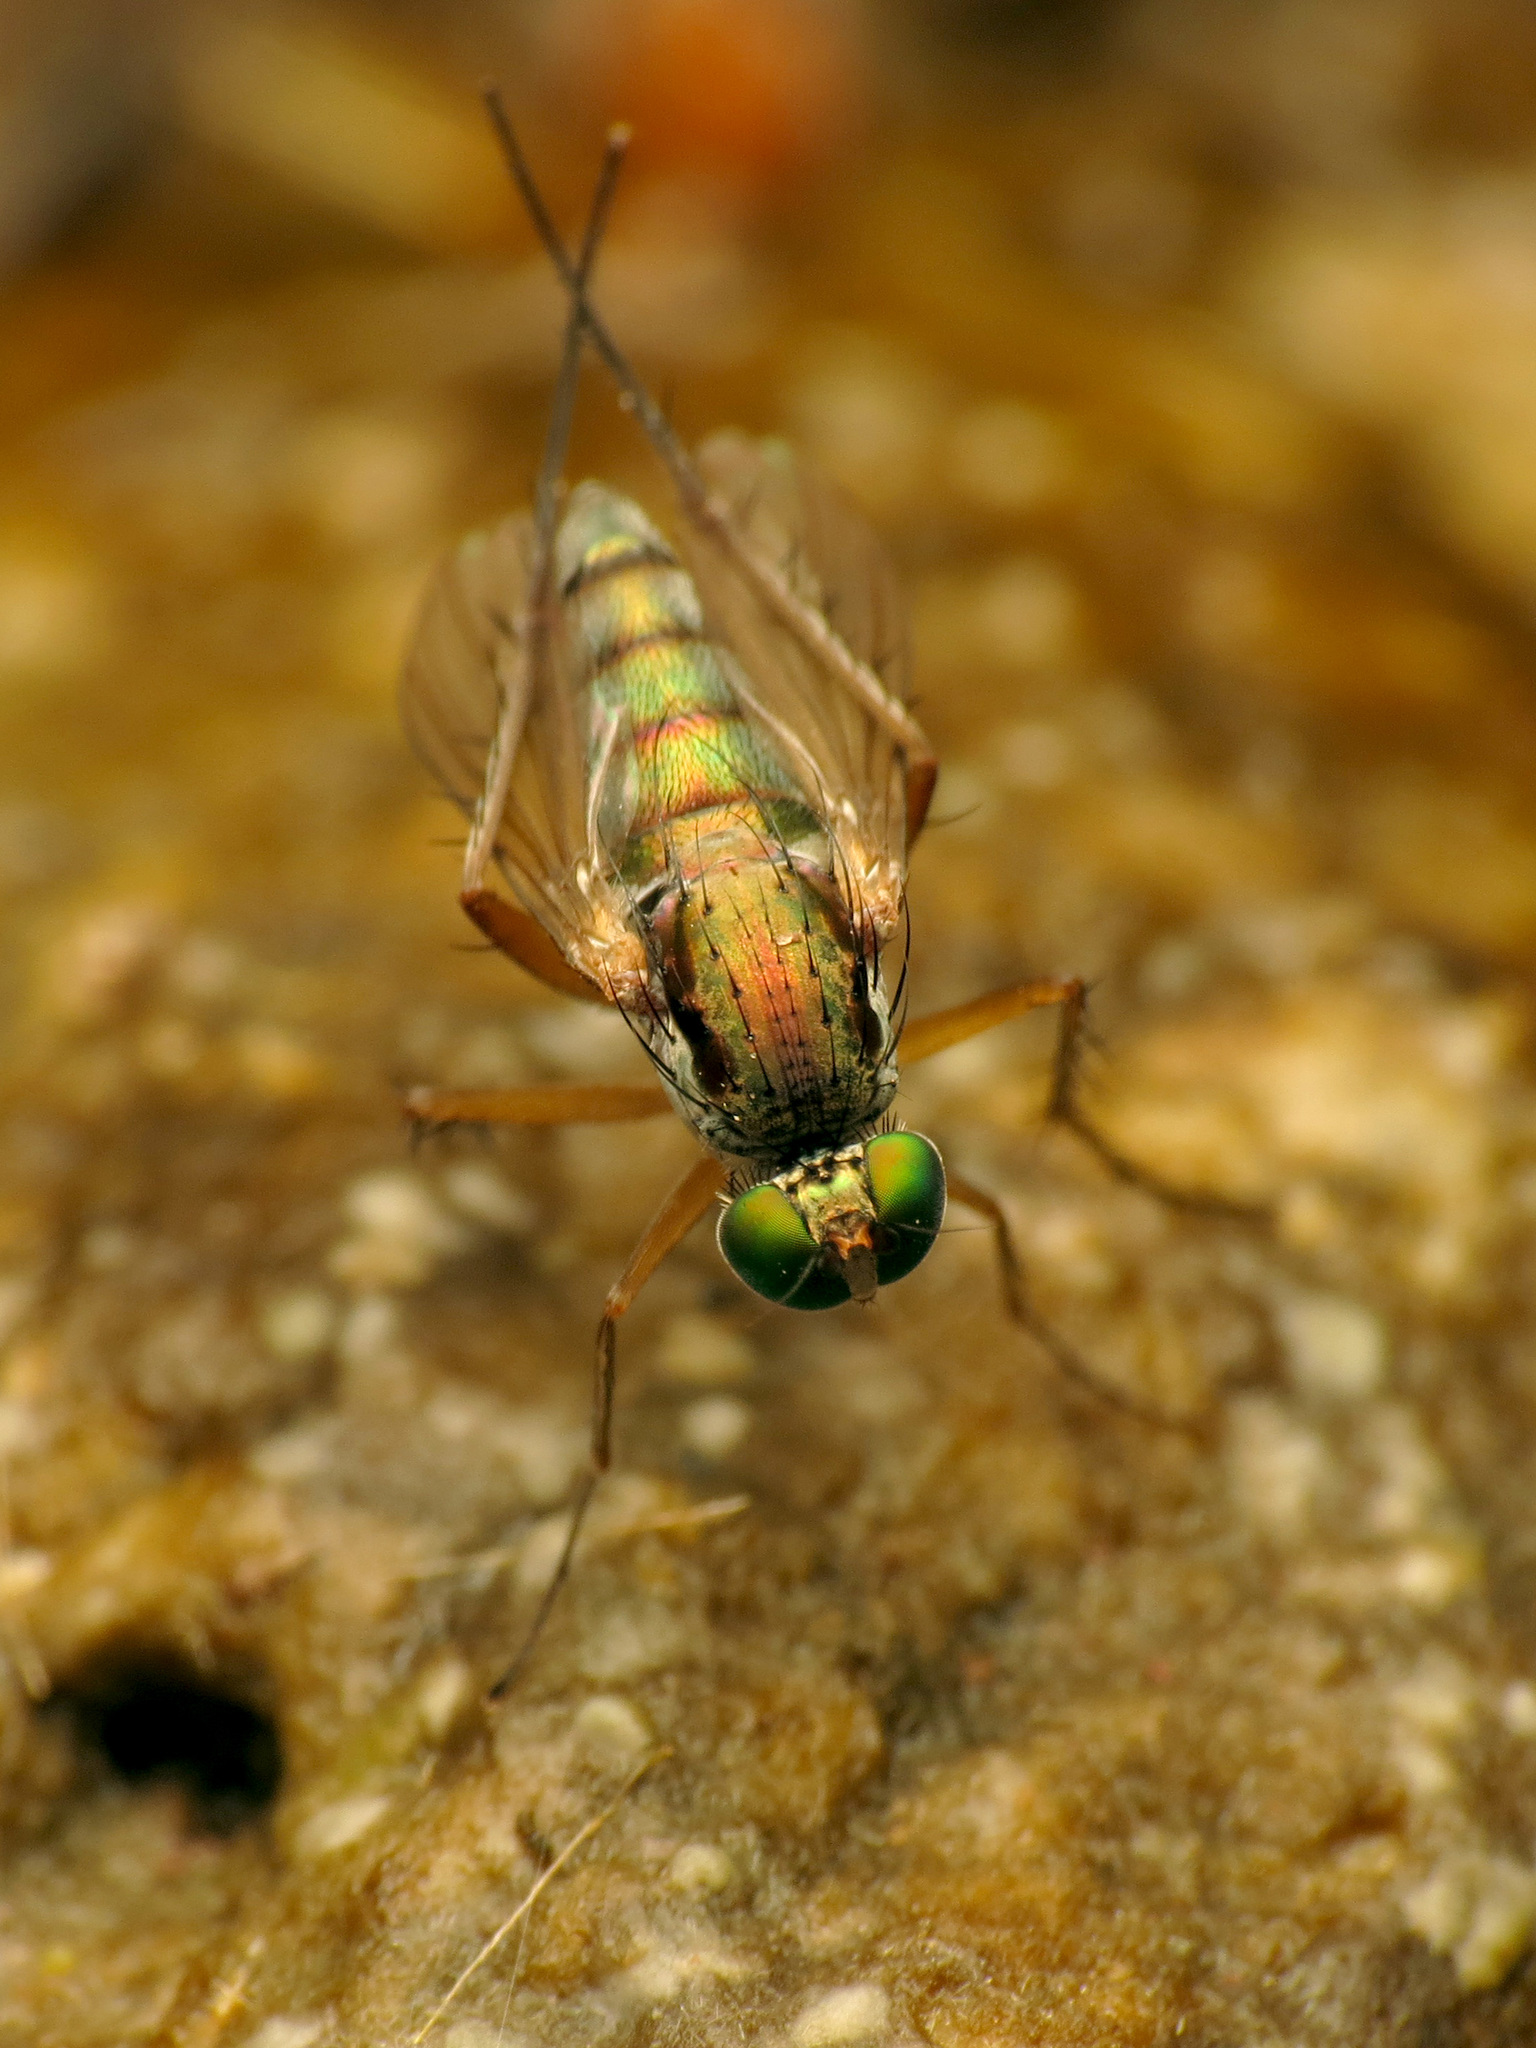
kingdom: Animalia
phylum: Arthropoda
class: Insecta
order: Diptera
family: Dolichopodidae
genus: Dolichopus
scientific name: Dolichopus dorsalis
